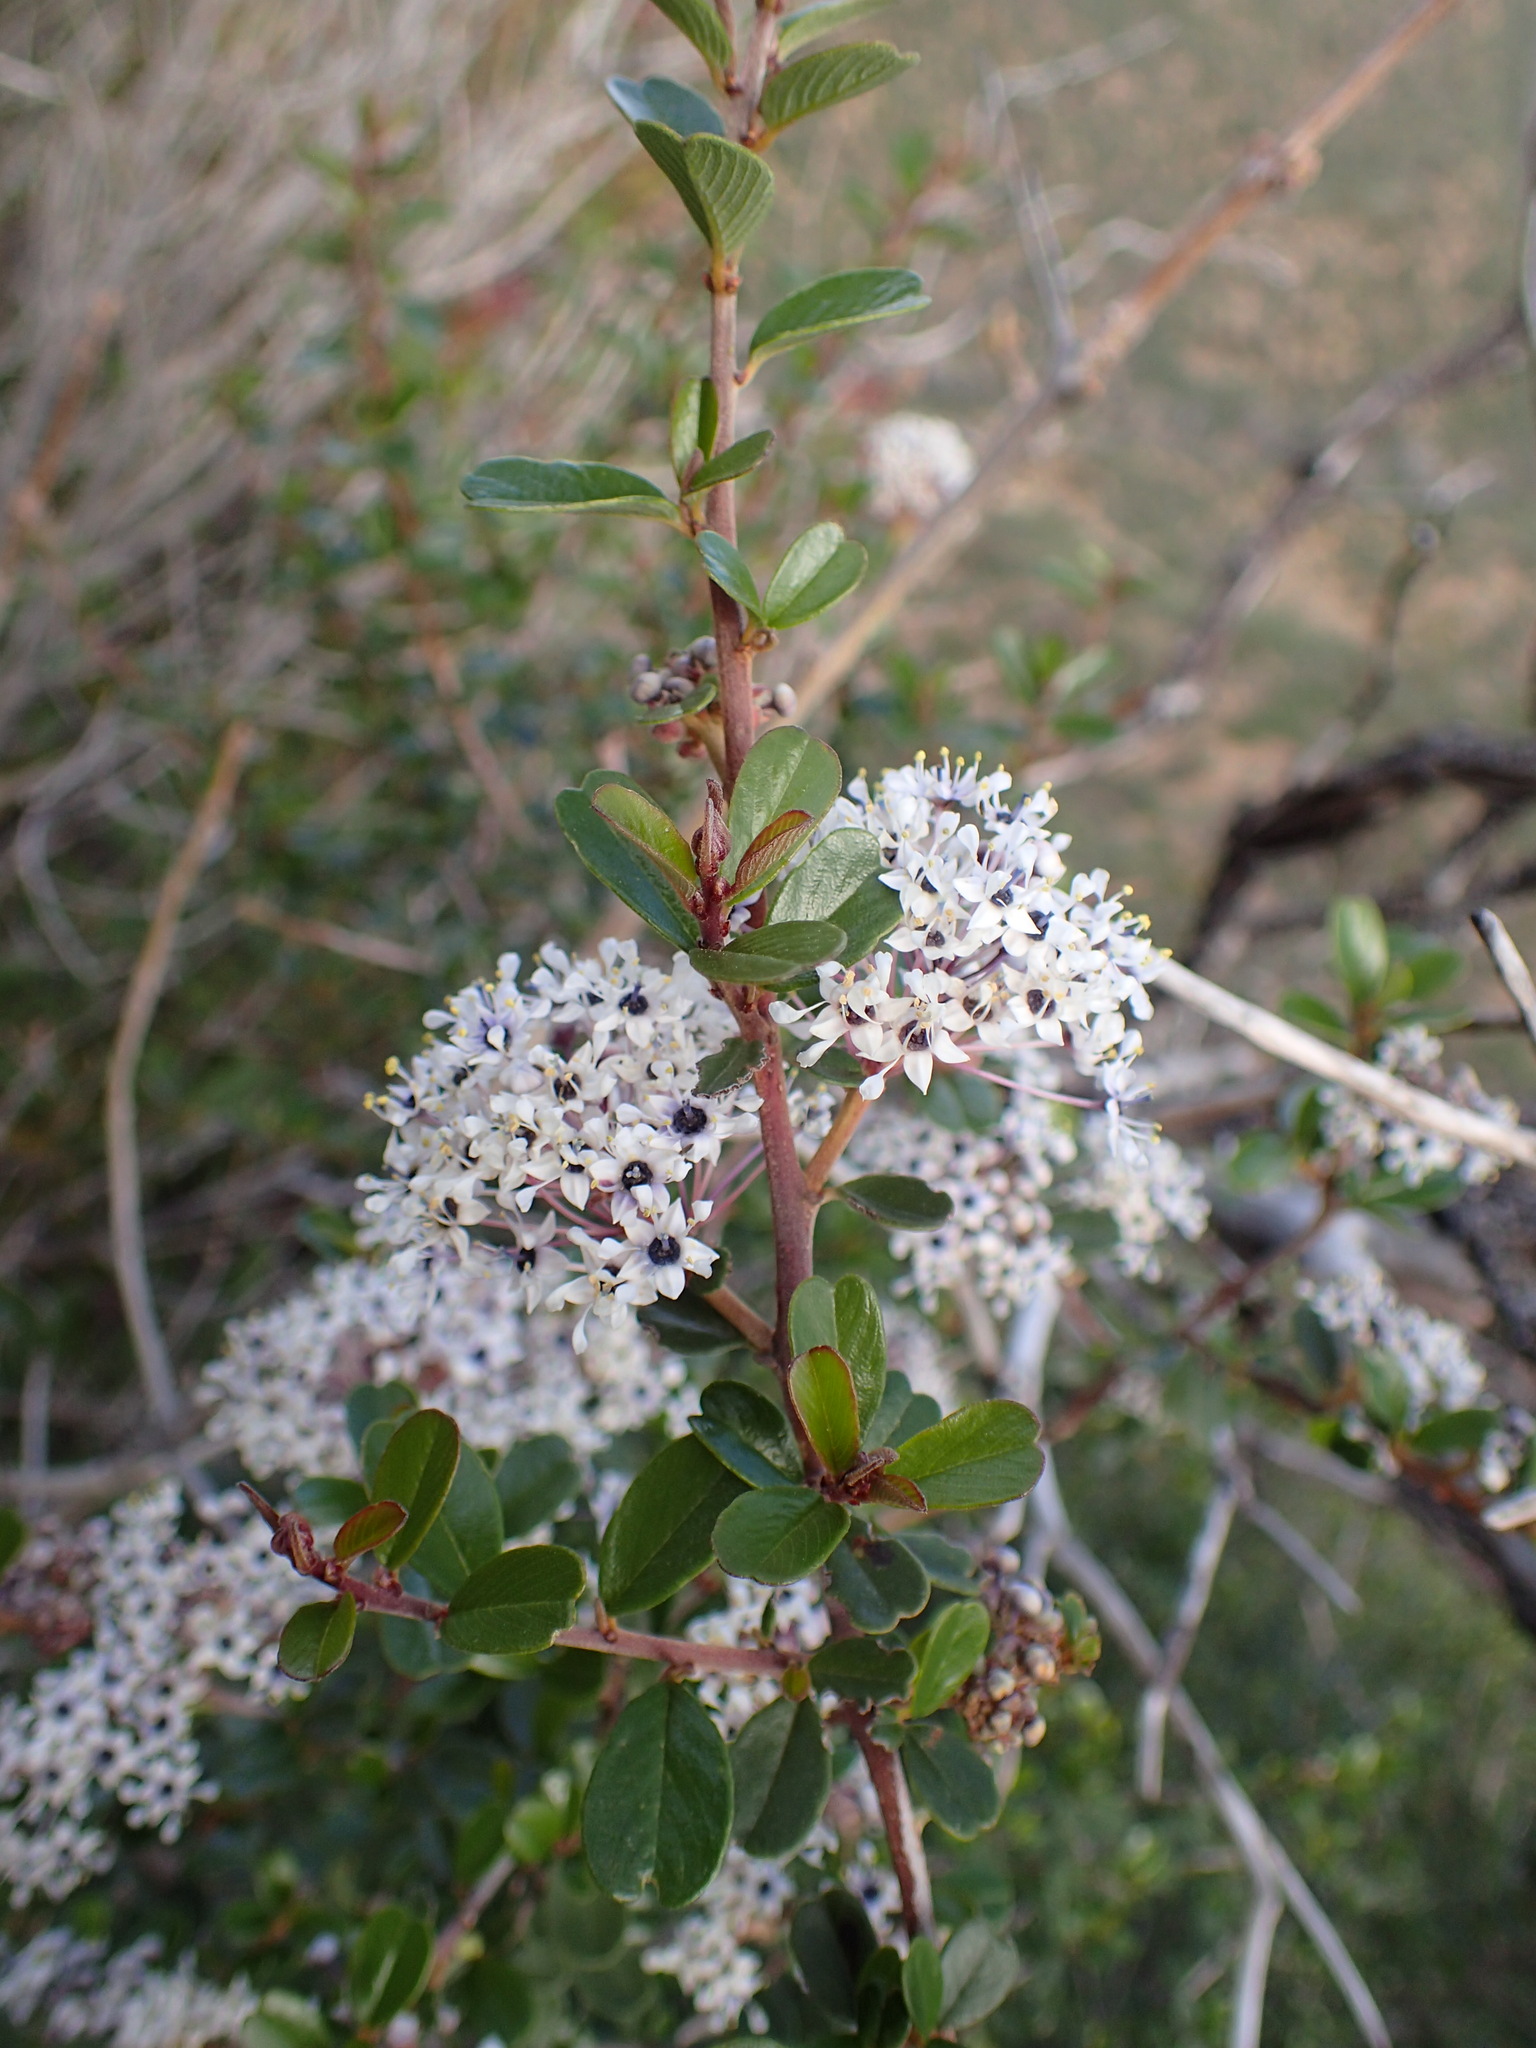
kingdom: Plantae
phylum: Tracheophyta
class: Magnoliopsida
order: Rosales
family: Rhamnaceae
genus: Ceanothus
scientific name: Ceanothus megacarpus
